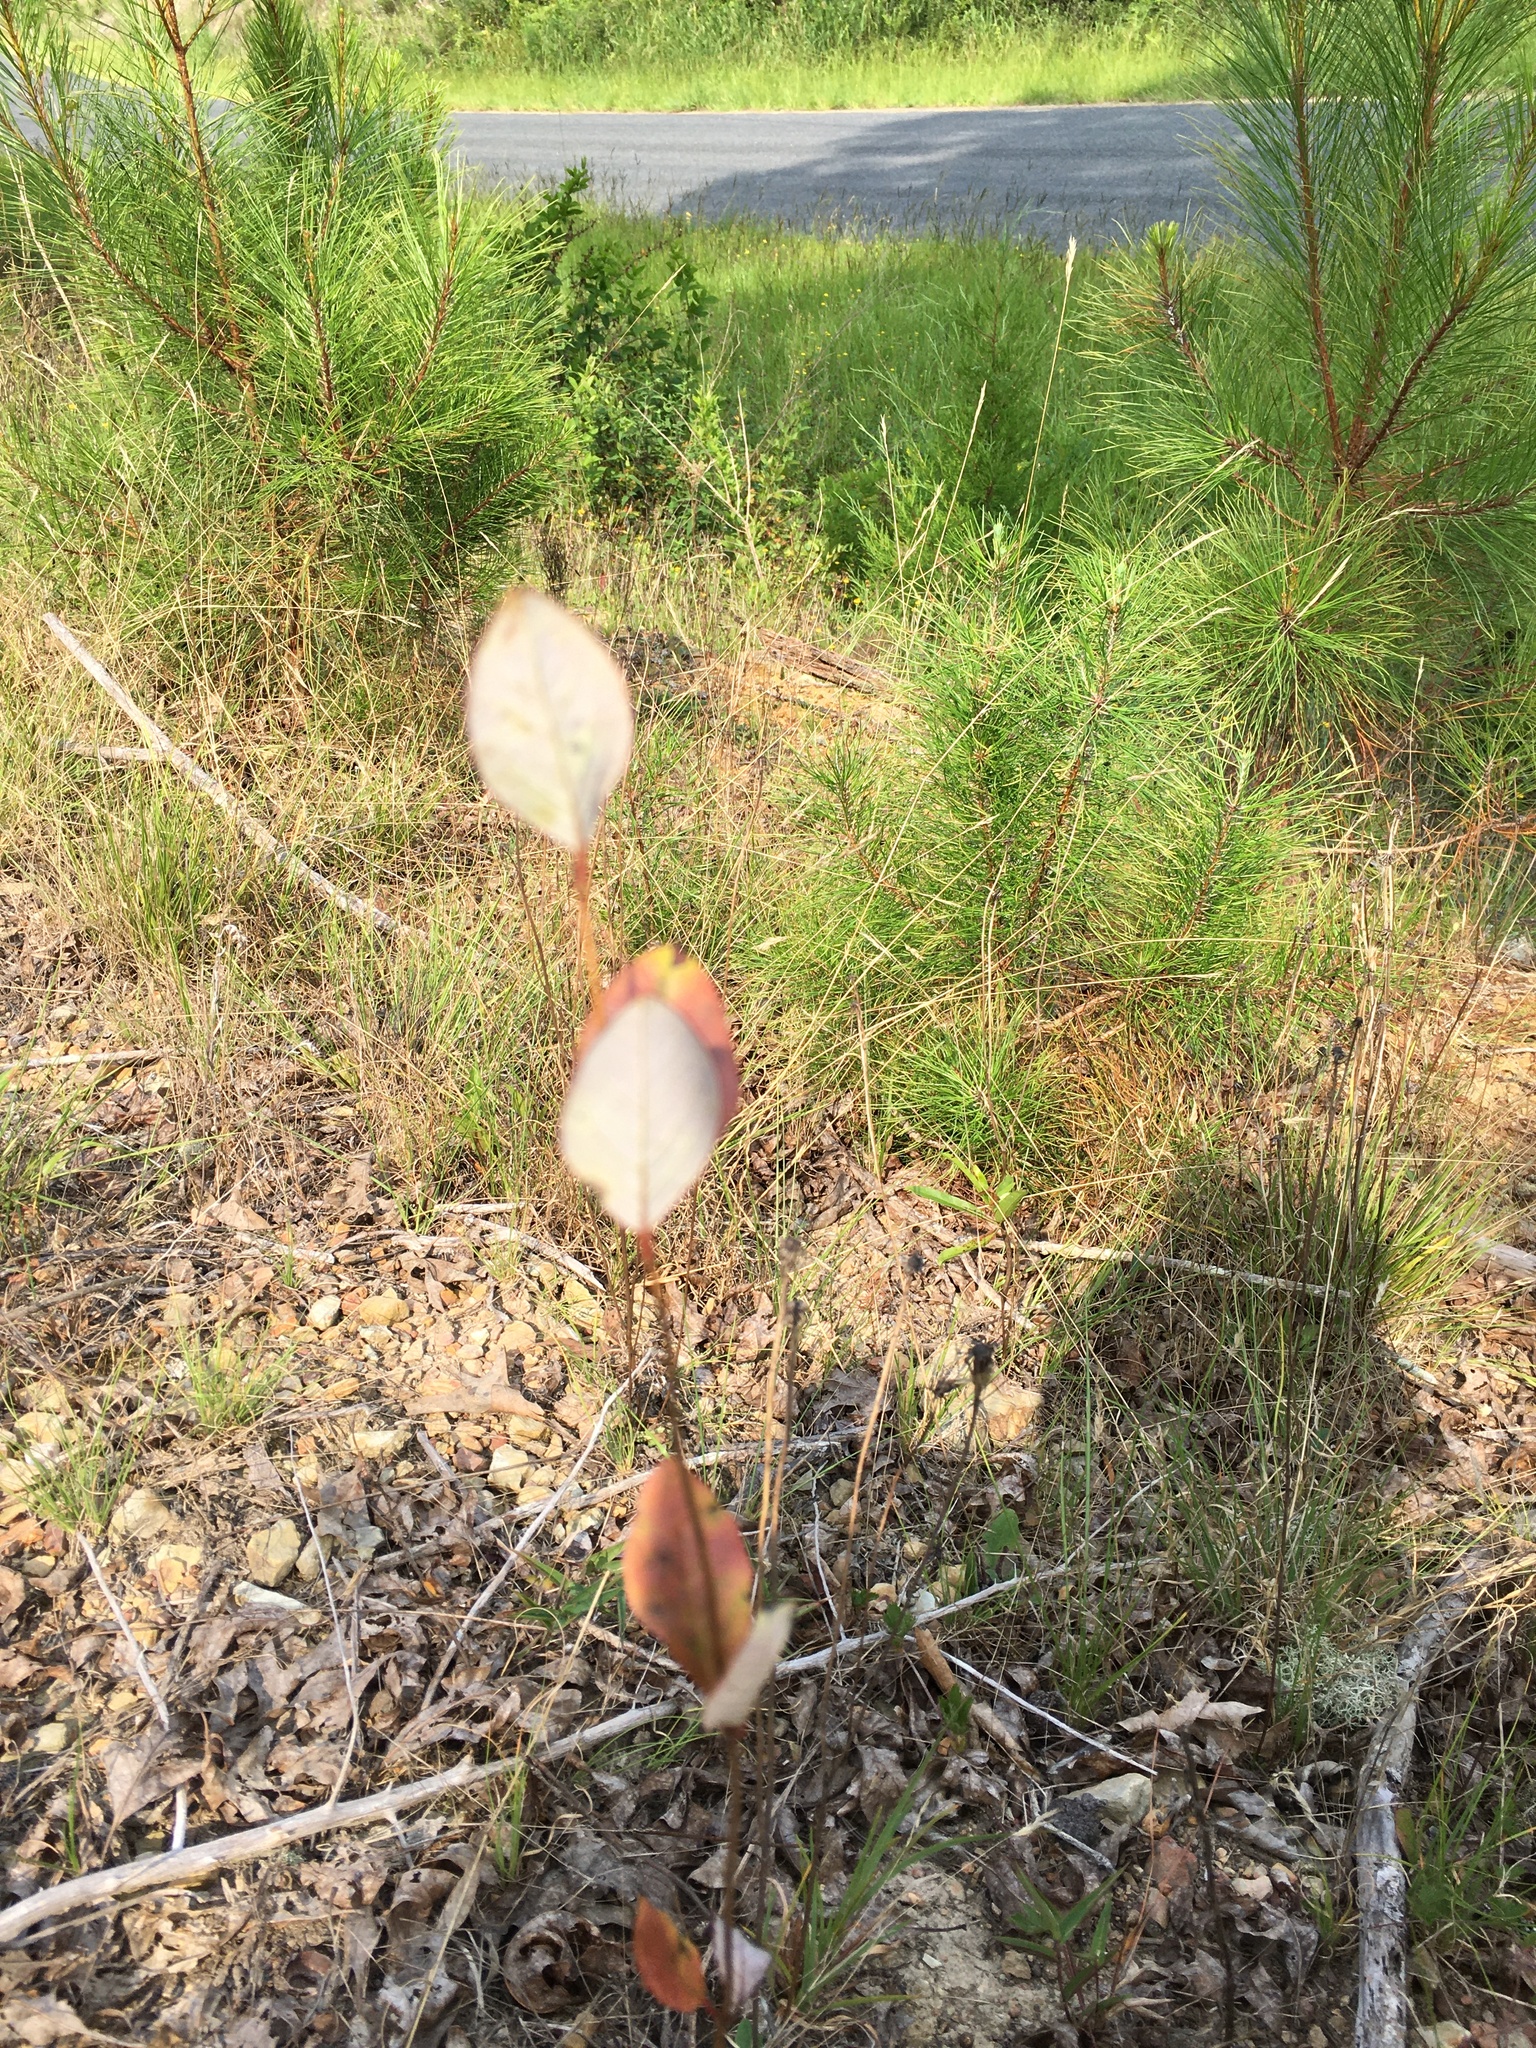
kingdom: Plantae
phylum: Tracheophyta
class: Magnoliopsida
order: Dipsacales
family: Caprifoliaceae
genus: Lonicera
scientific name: Lonicera sempervirens
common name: Coral honeysuckle
